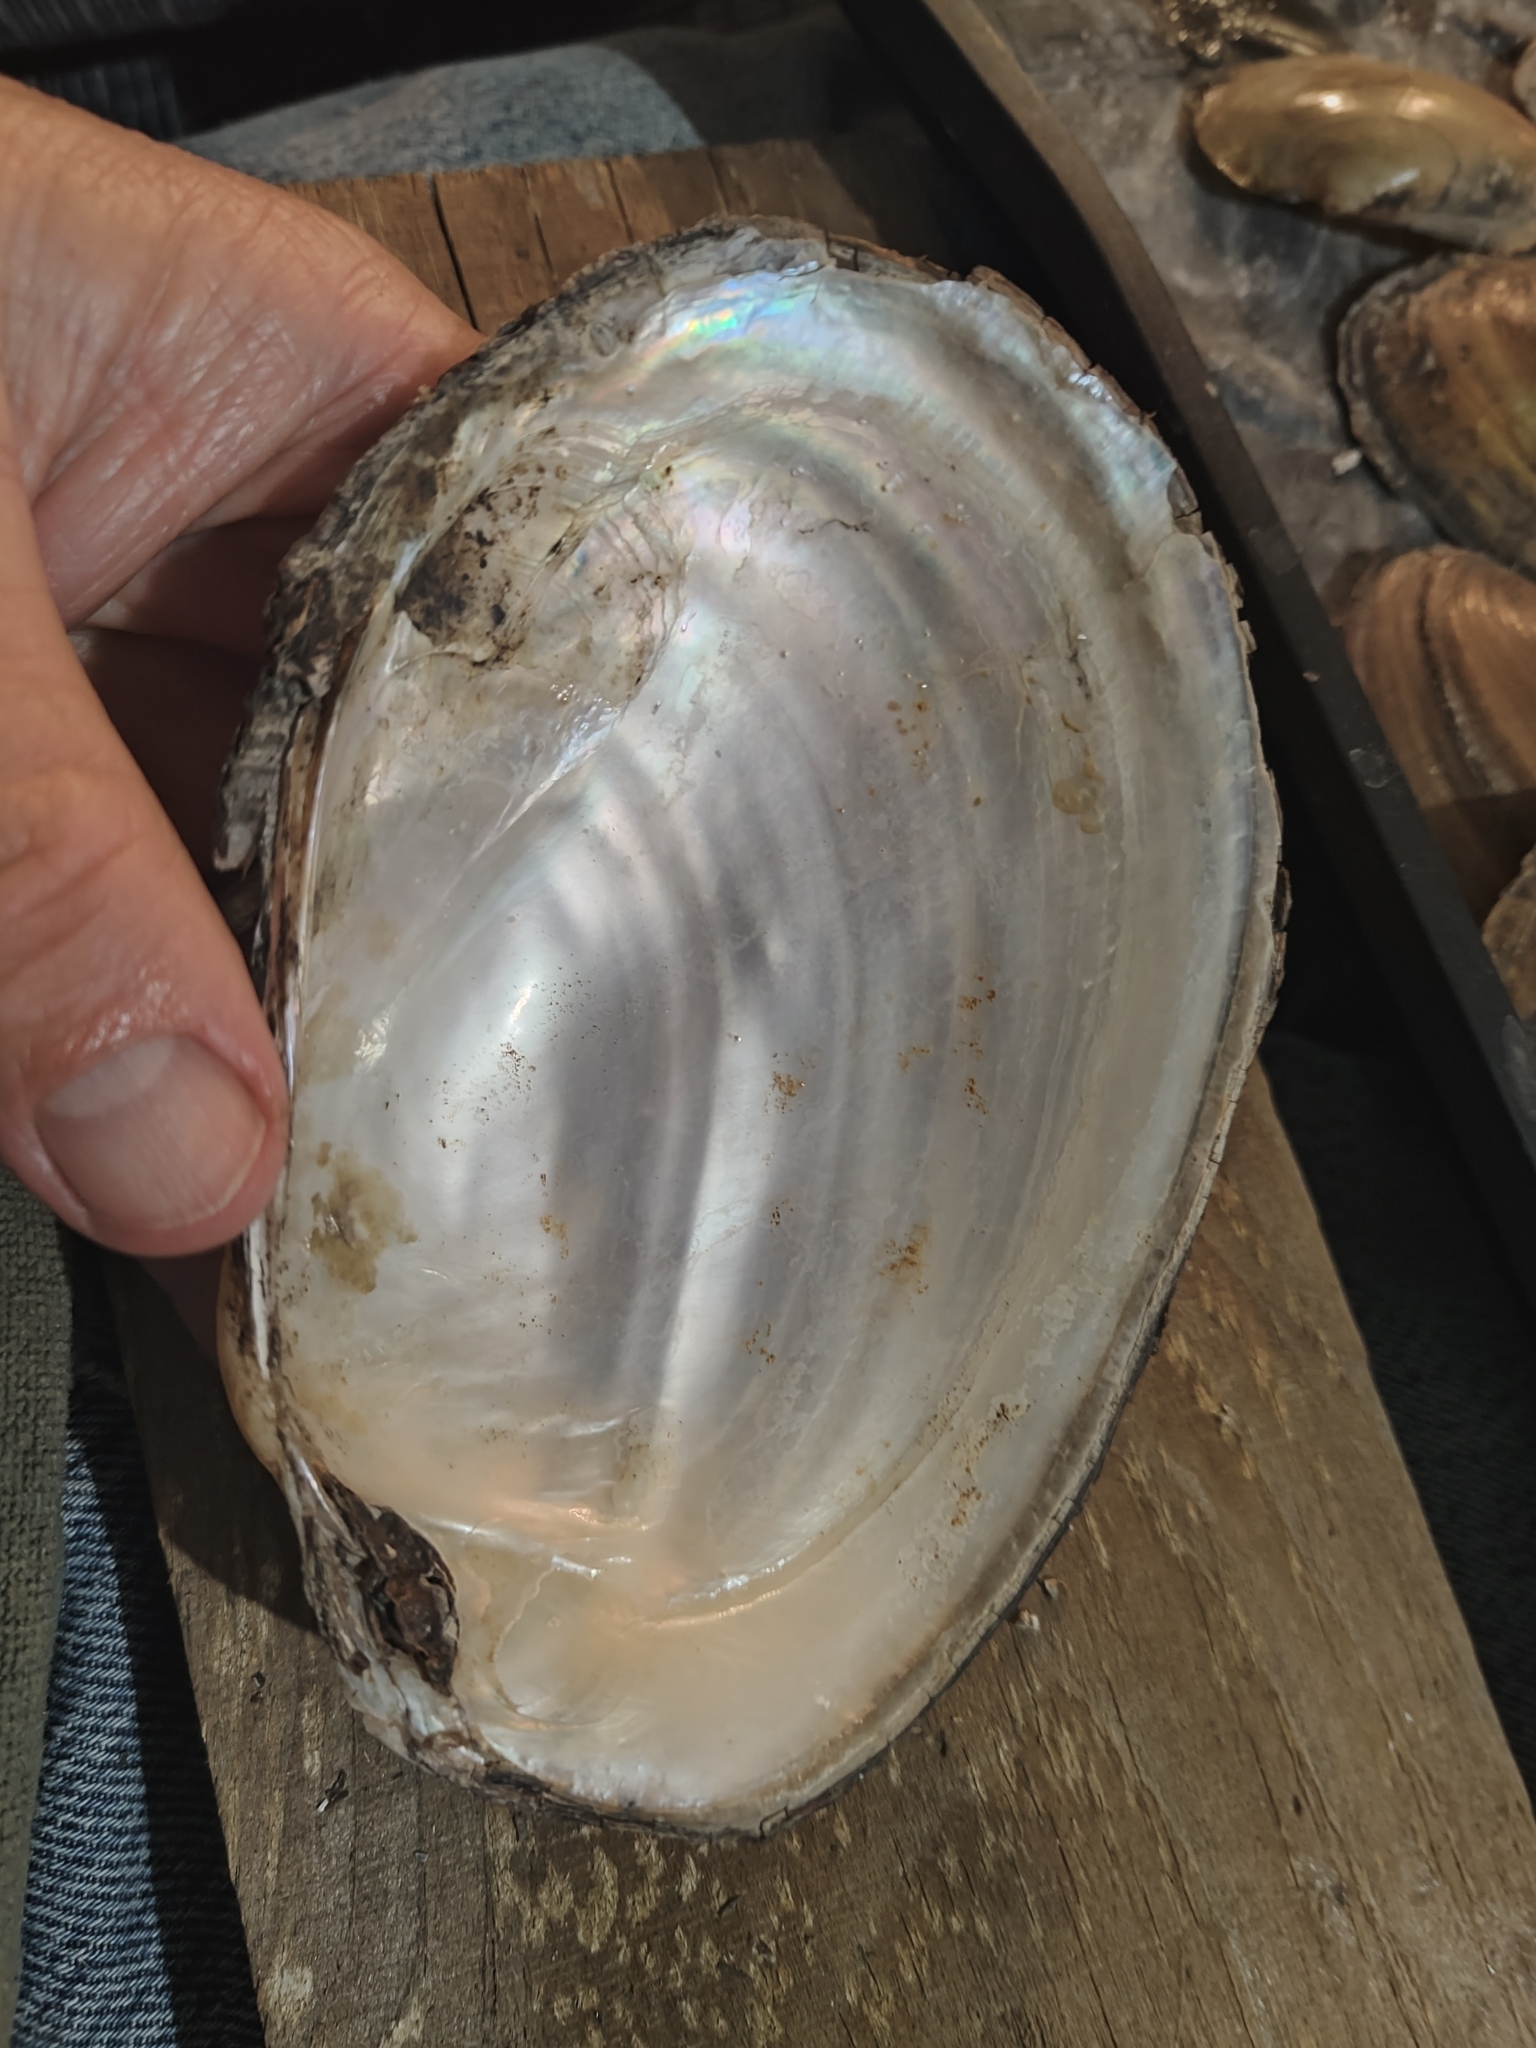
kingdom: Animalia
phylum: Mollusca
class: Bivalvia
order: Unionida
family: Unionidae
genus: Potamilus
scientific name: Potamilus fragilis
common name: Fragile papershell
